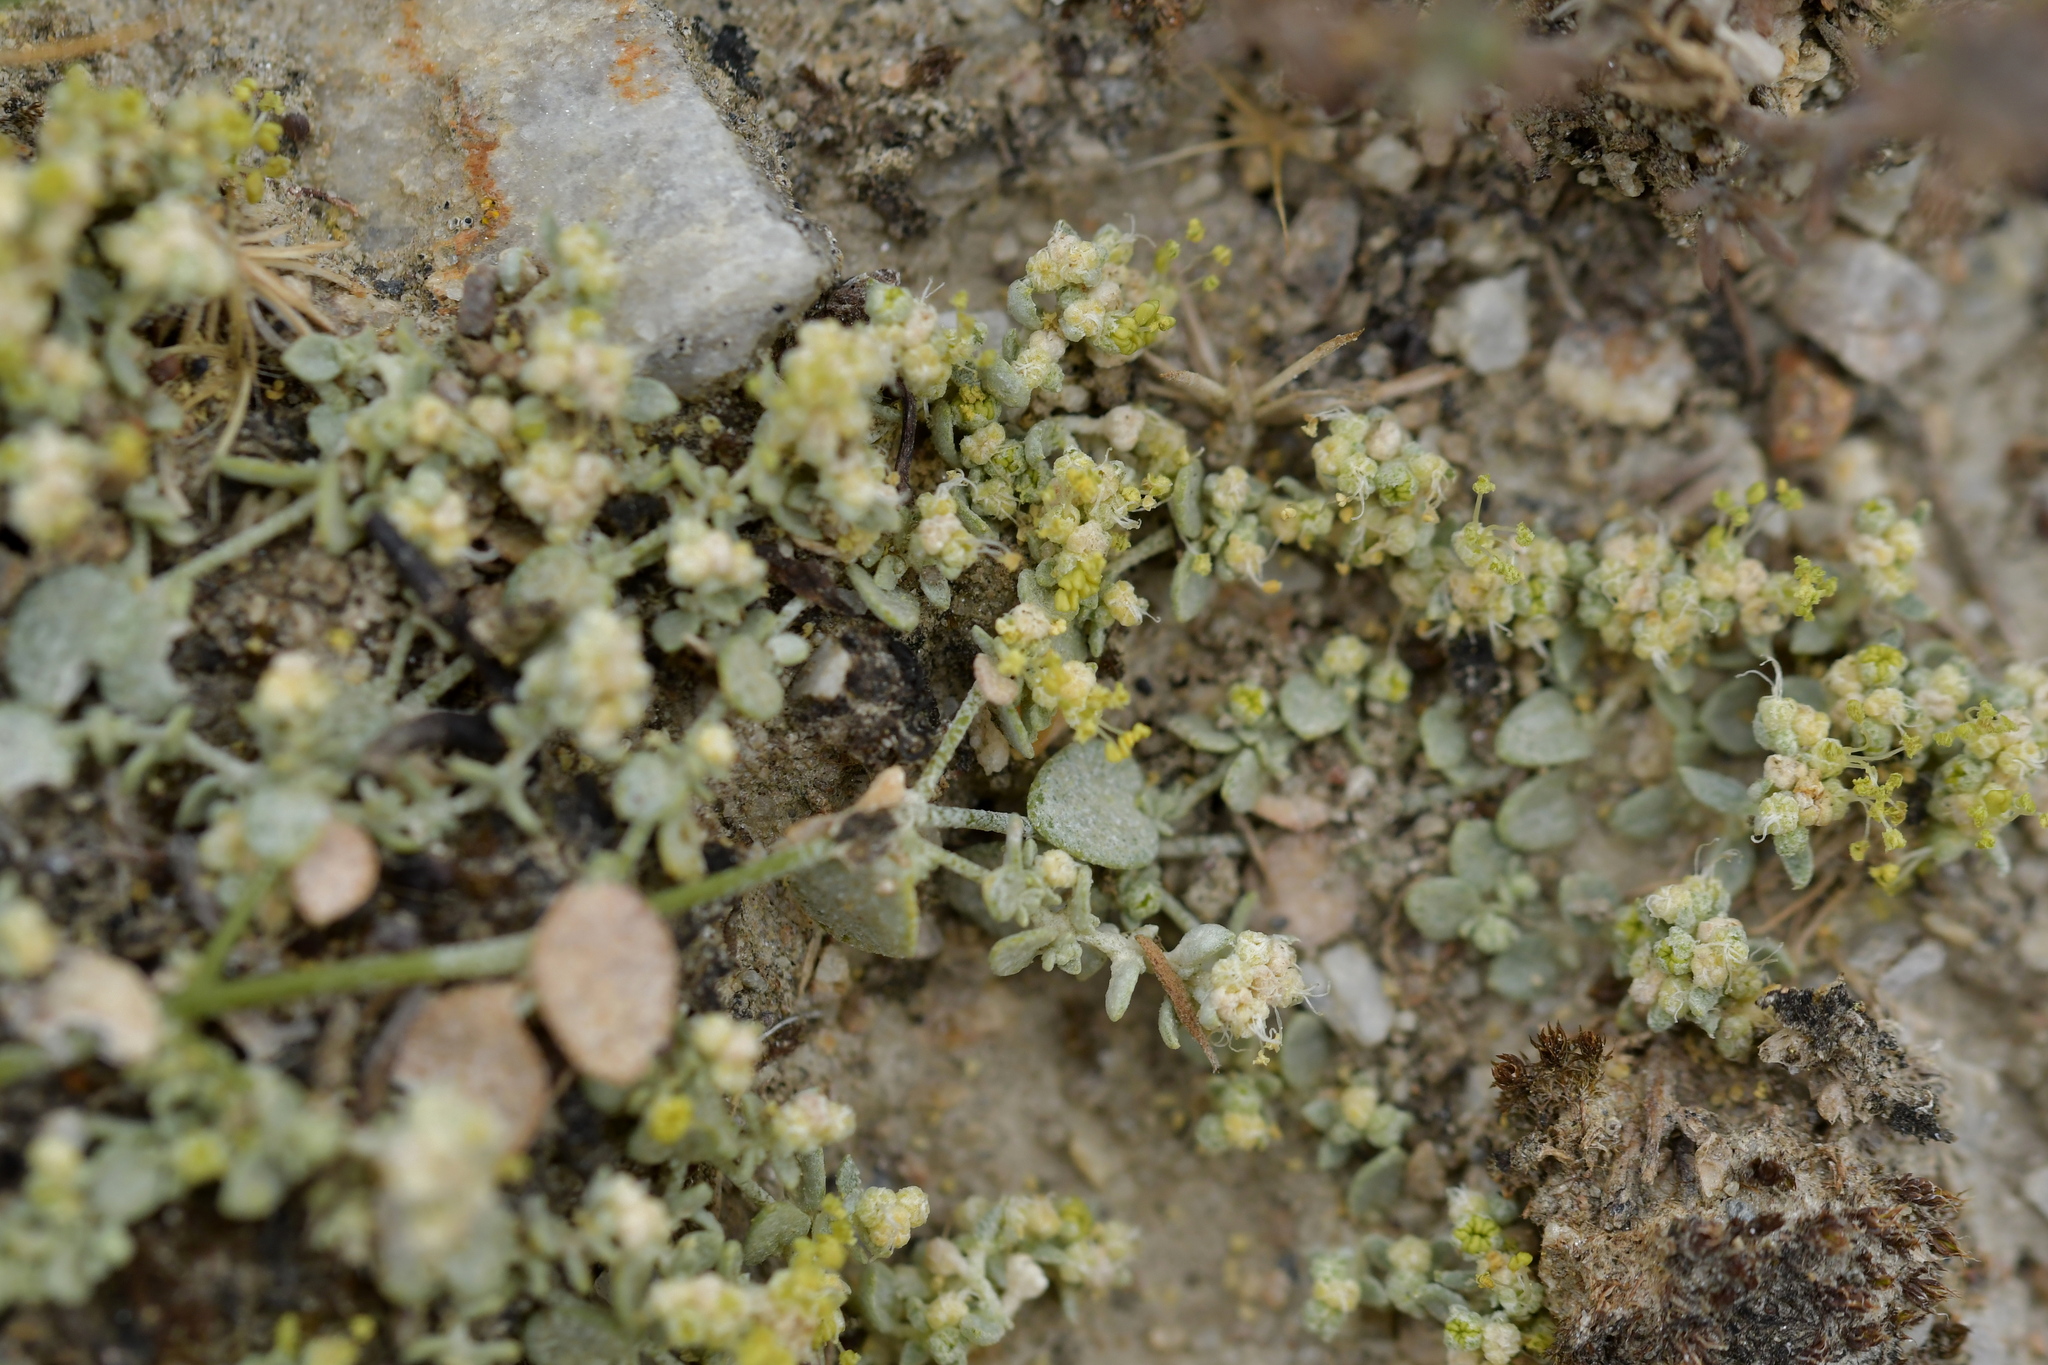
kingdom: Plantae
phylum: Tracheophyta
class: Magnoliopsida
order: Caryophyllales
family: Amaranthaceae
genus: Atriplex
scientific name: Atriplex buchananii
